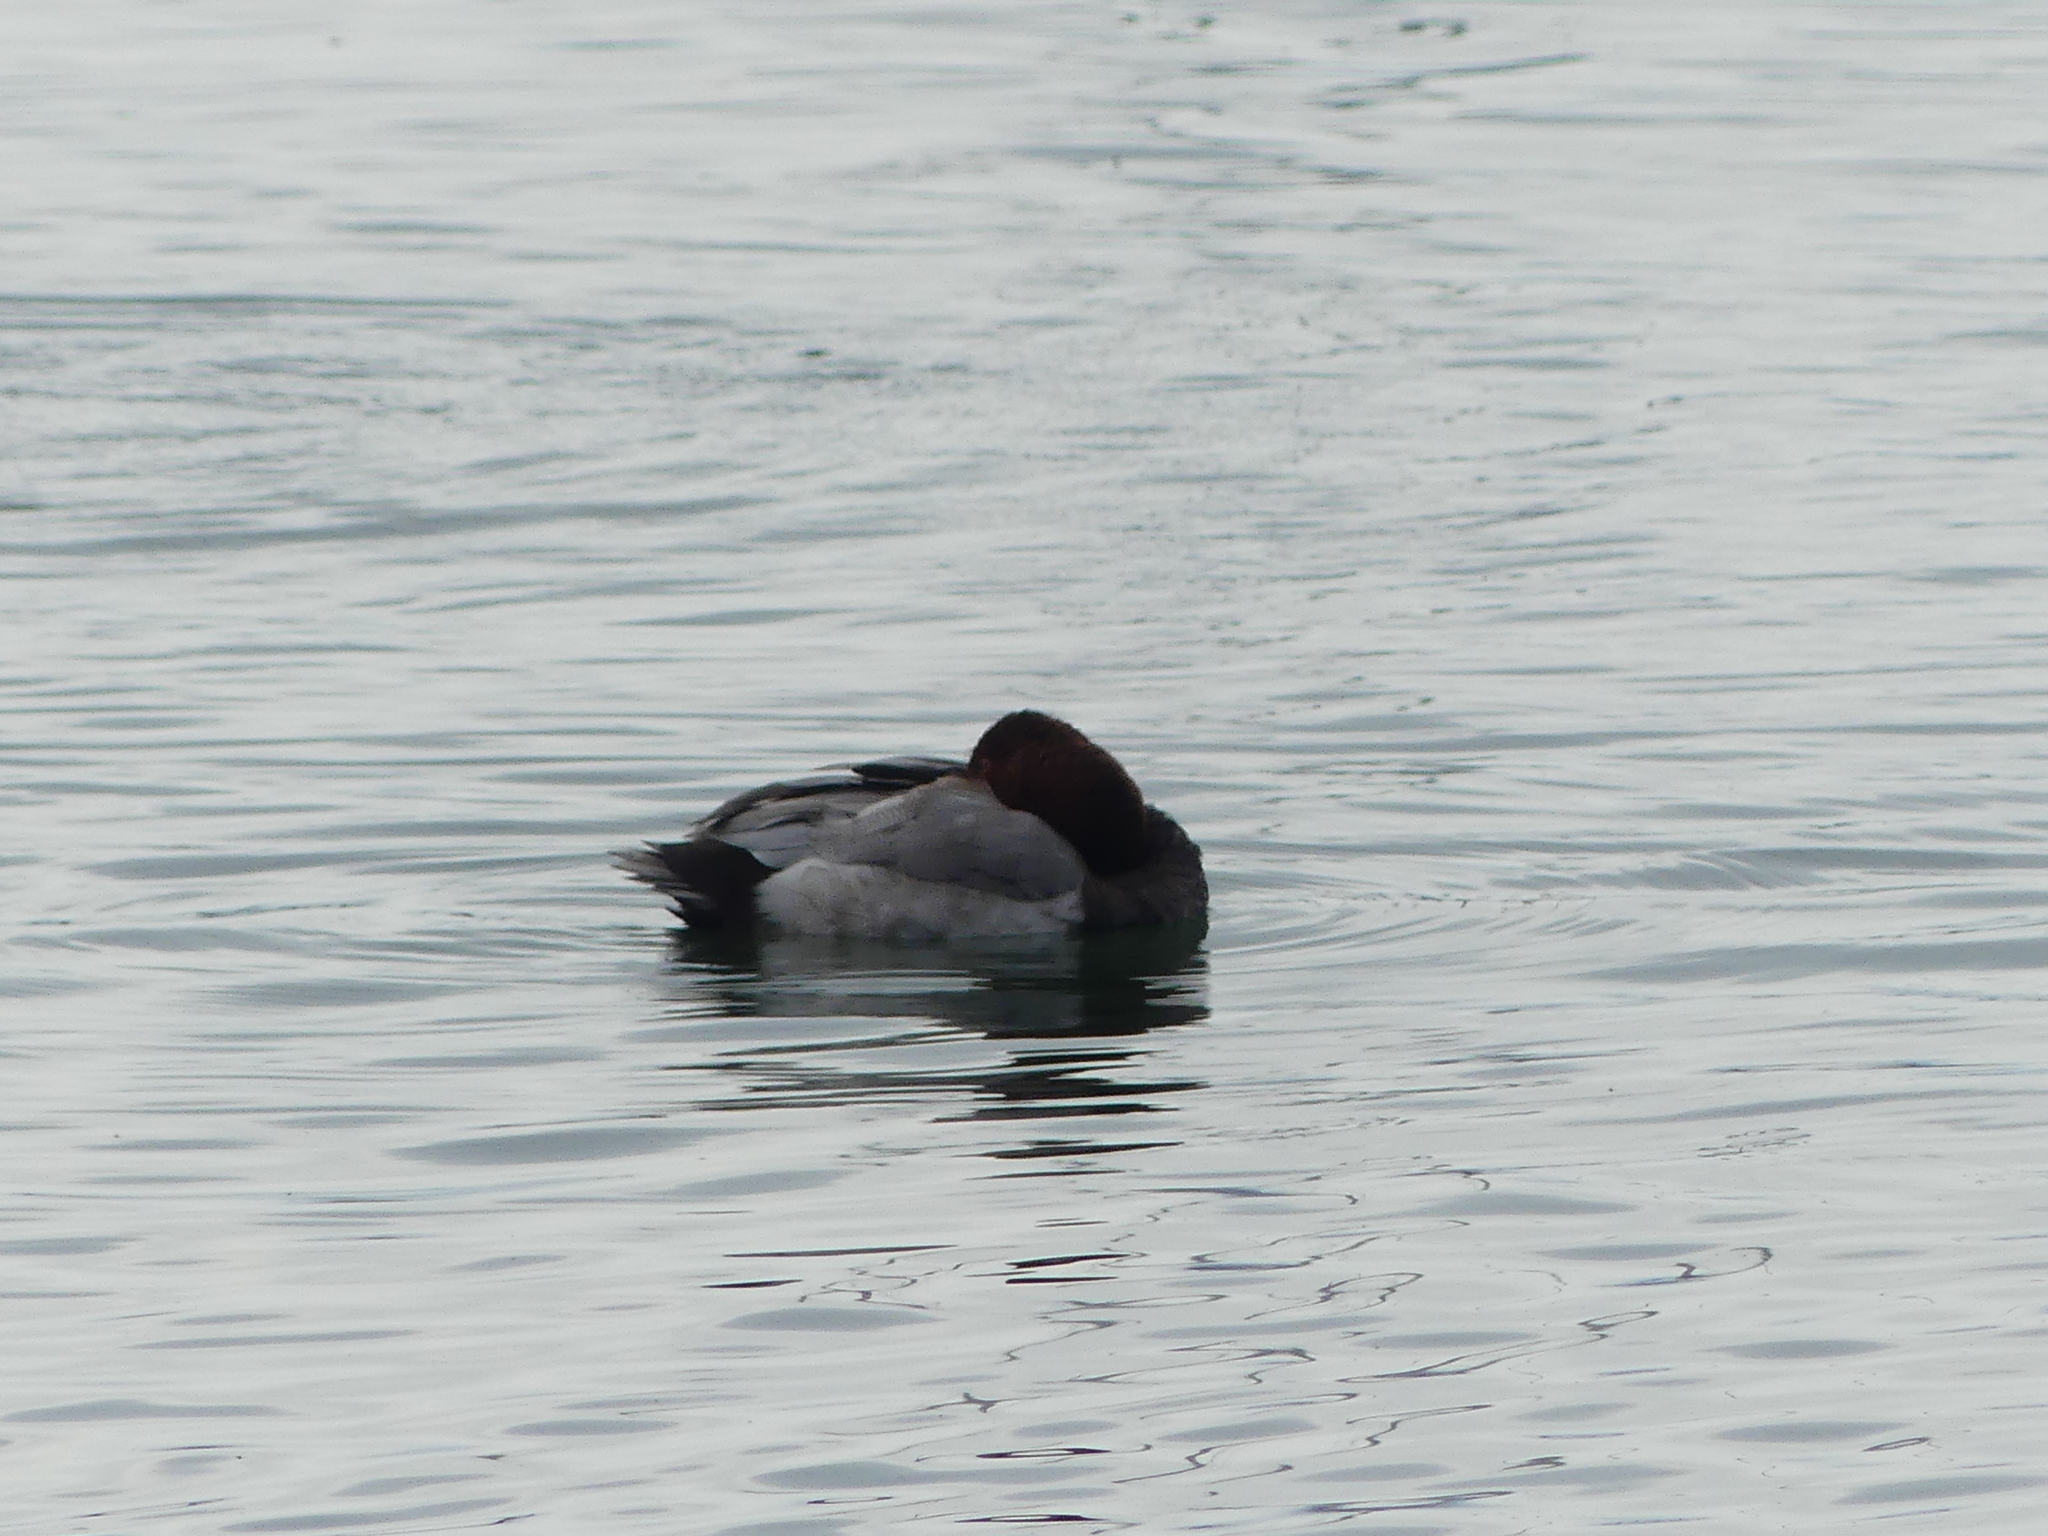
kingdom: Animalia
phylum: Chordata
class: Aves
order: Anseriformes
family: Anatidae
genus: Aythya
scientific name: Aythya ferina
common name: Common pochard
